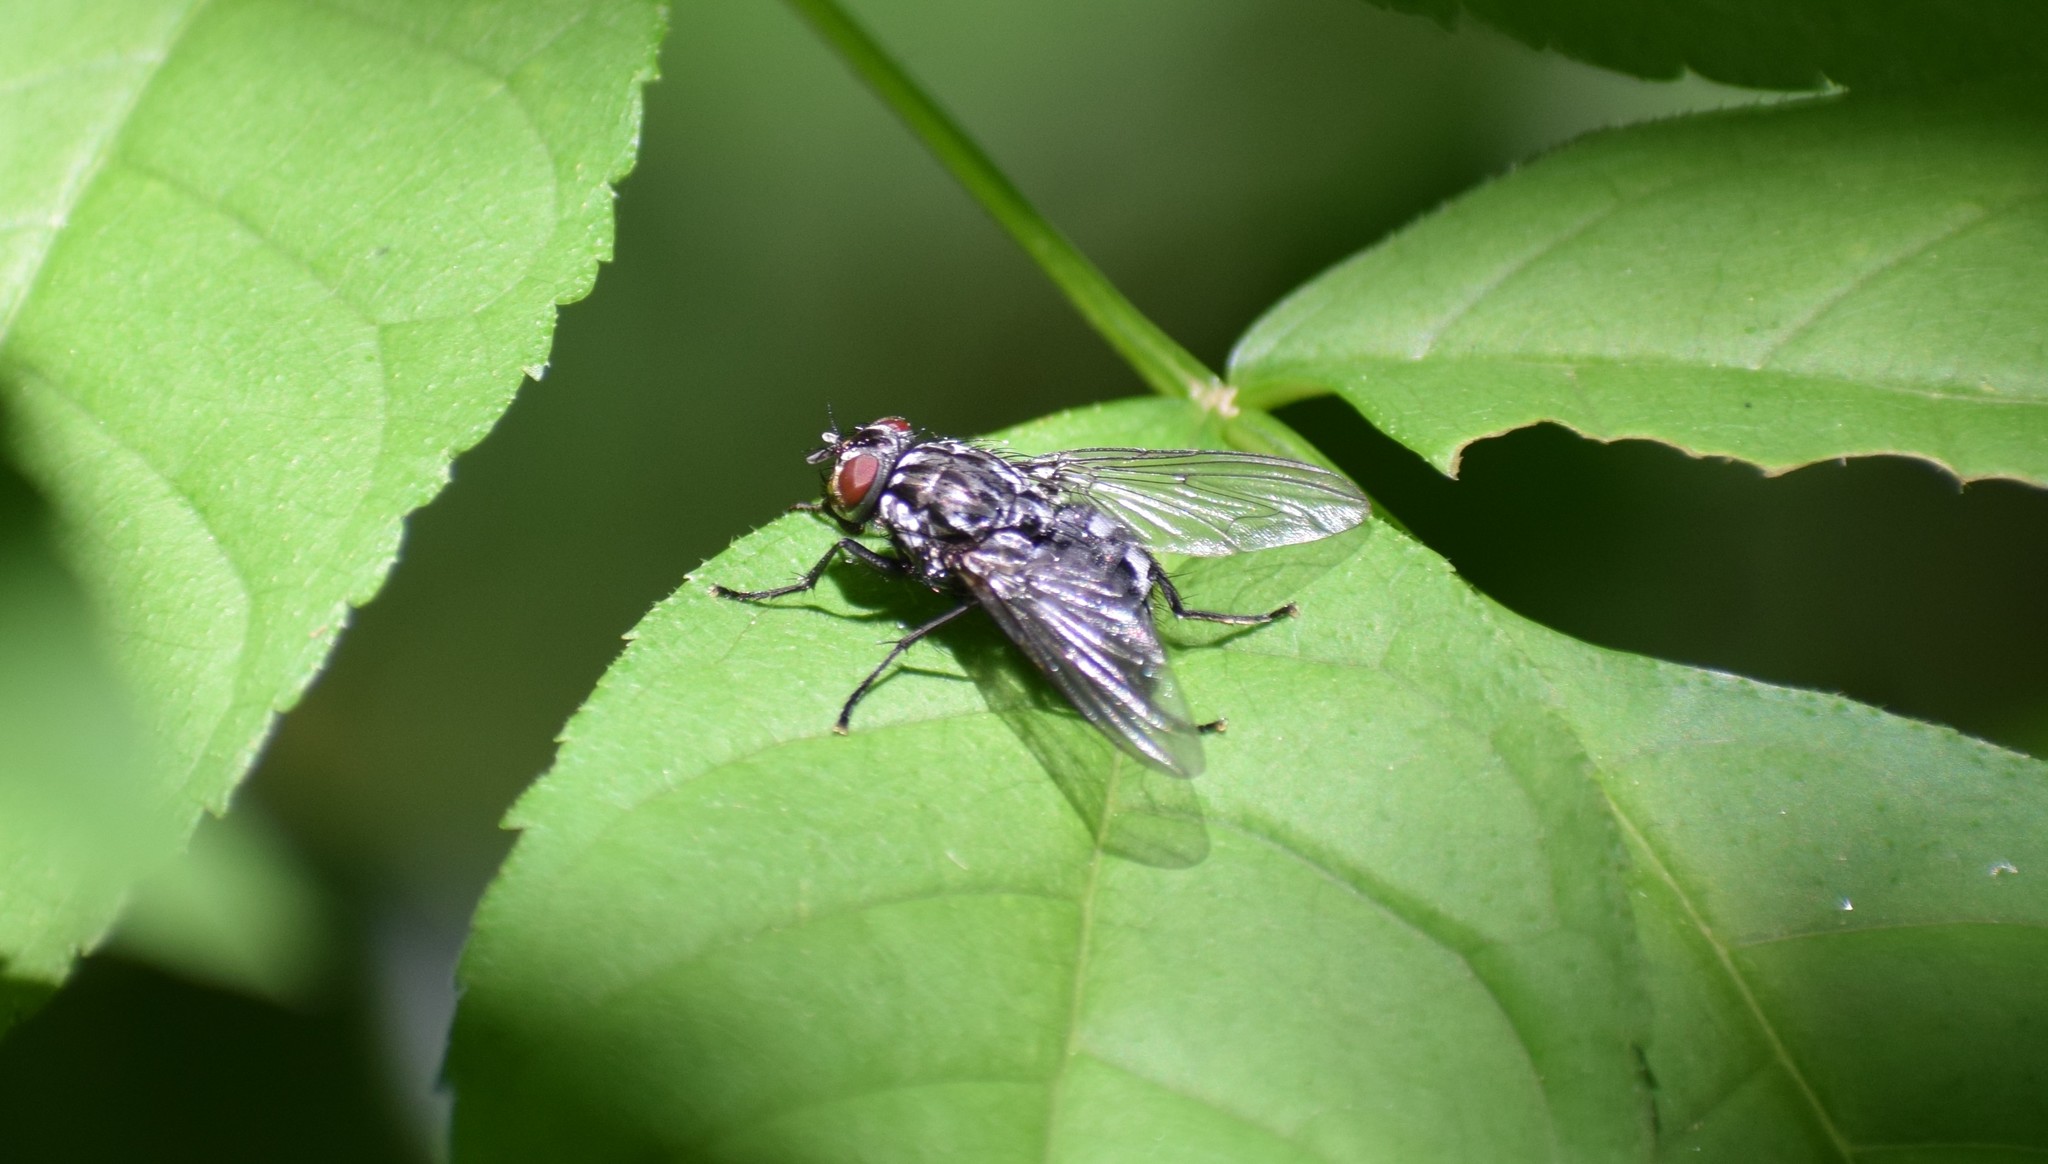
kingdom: Animalia
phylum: Arthropoda
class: Insecta
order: Diptera
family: Muscidae
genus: Polietes
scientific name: Polietes
